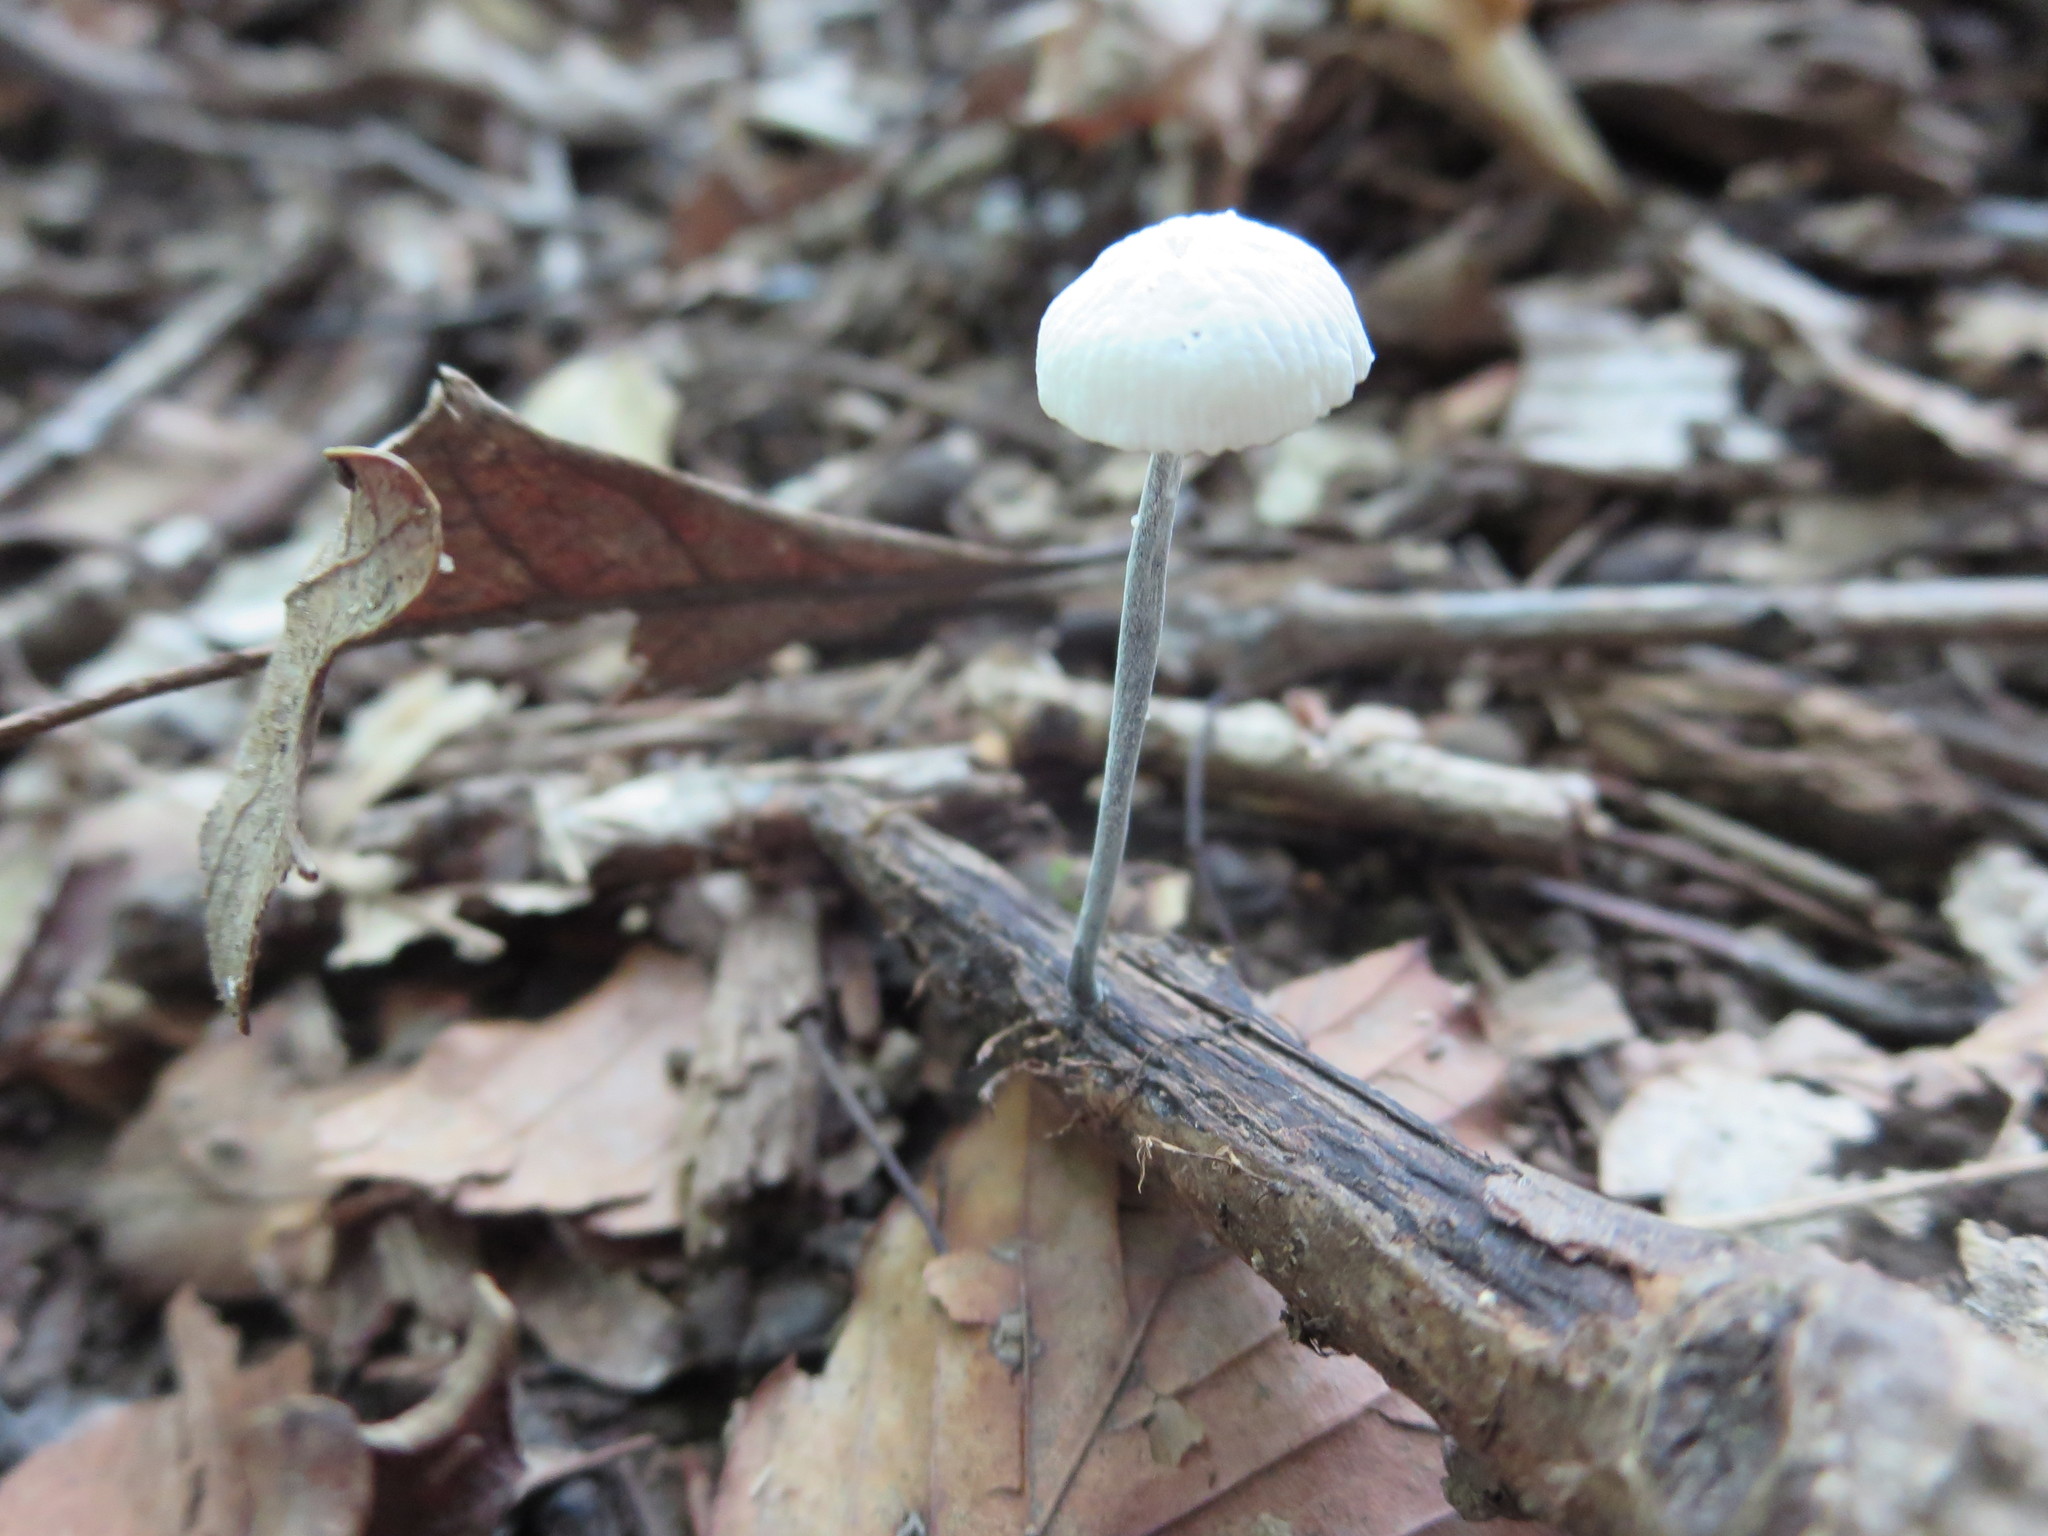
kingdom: Fungi
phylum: Basidiomycota
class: Agaricomycetes
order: Agaricales
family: Marasmiaceae
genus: Tetrapyrgos
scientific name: Tetrapyrgos nigripes
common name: Black-stalked marasmius
